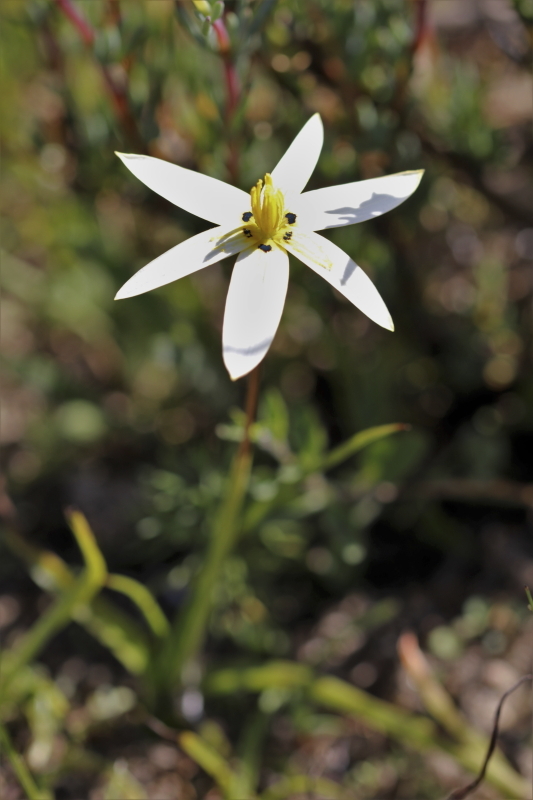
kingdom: Plantae
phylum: Tracheophyta
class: Liliopsida
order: Asparagales
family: Hypoxidaceae
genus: Pauridia
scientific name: Pauridia capensis
